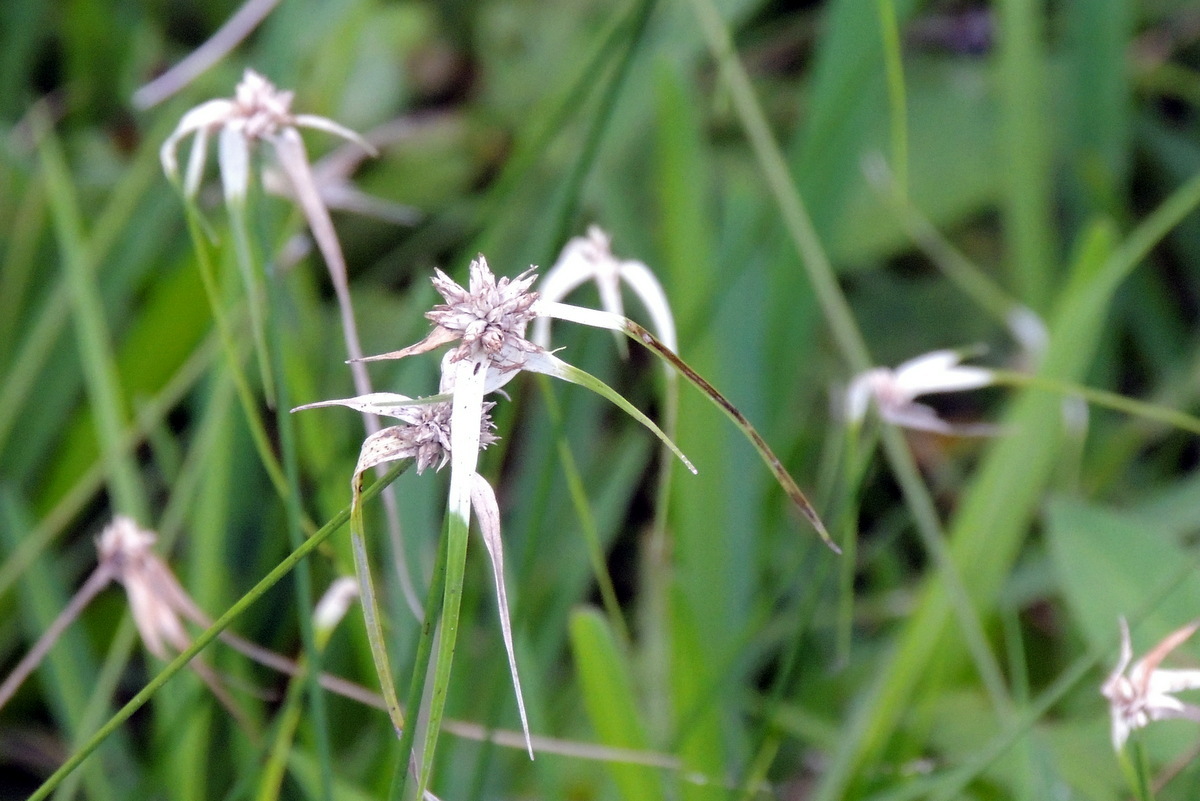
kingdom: Plantae
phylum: Tracheophyta
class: Liliopsida
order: Poales
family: Cyperaceae
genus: Rhynchospora
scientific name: Rhynchospora colorata
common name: Star sedge
